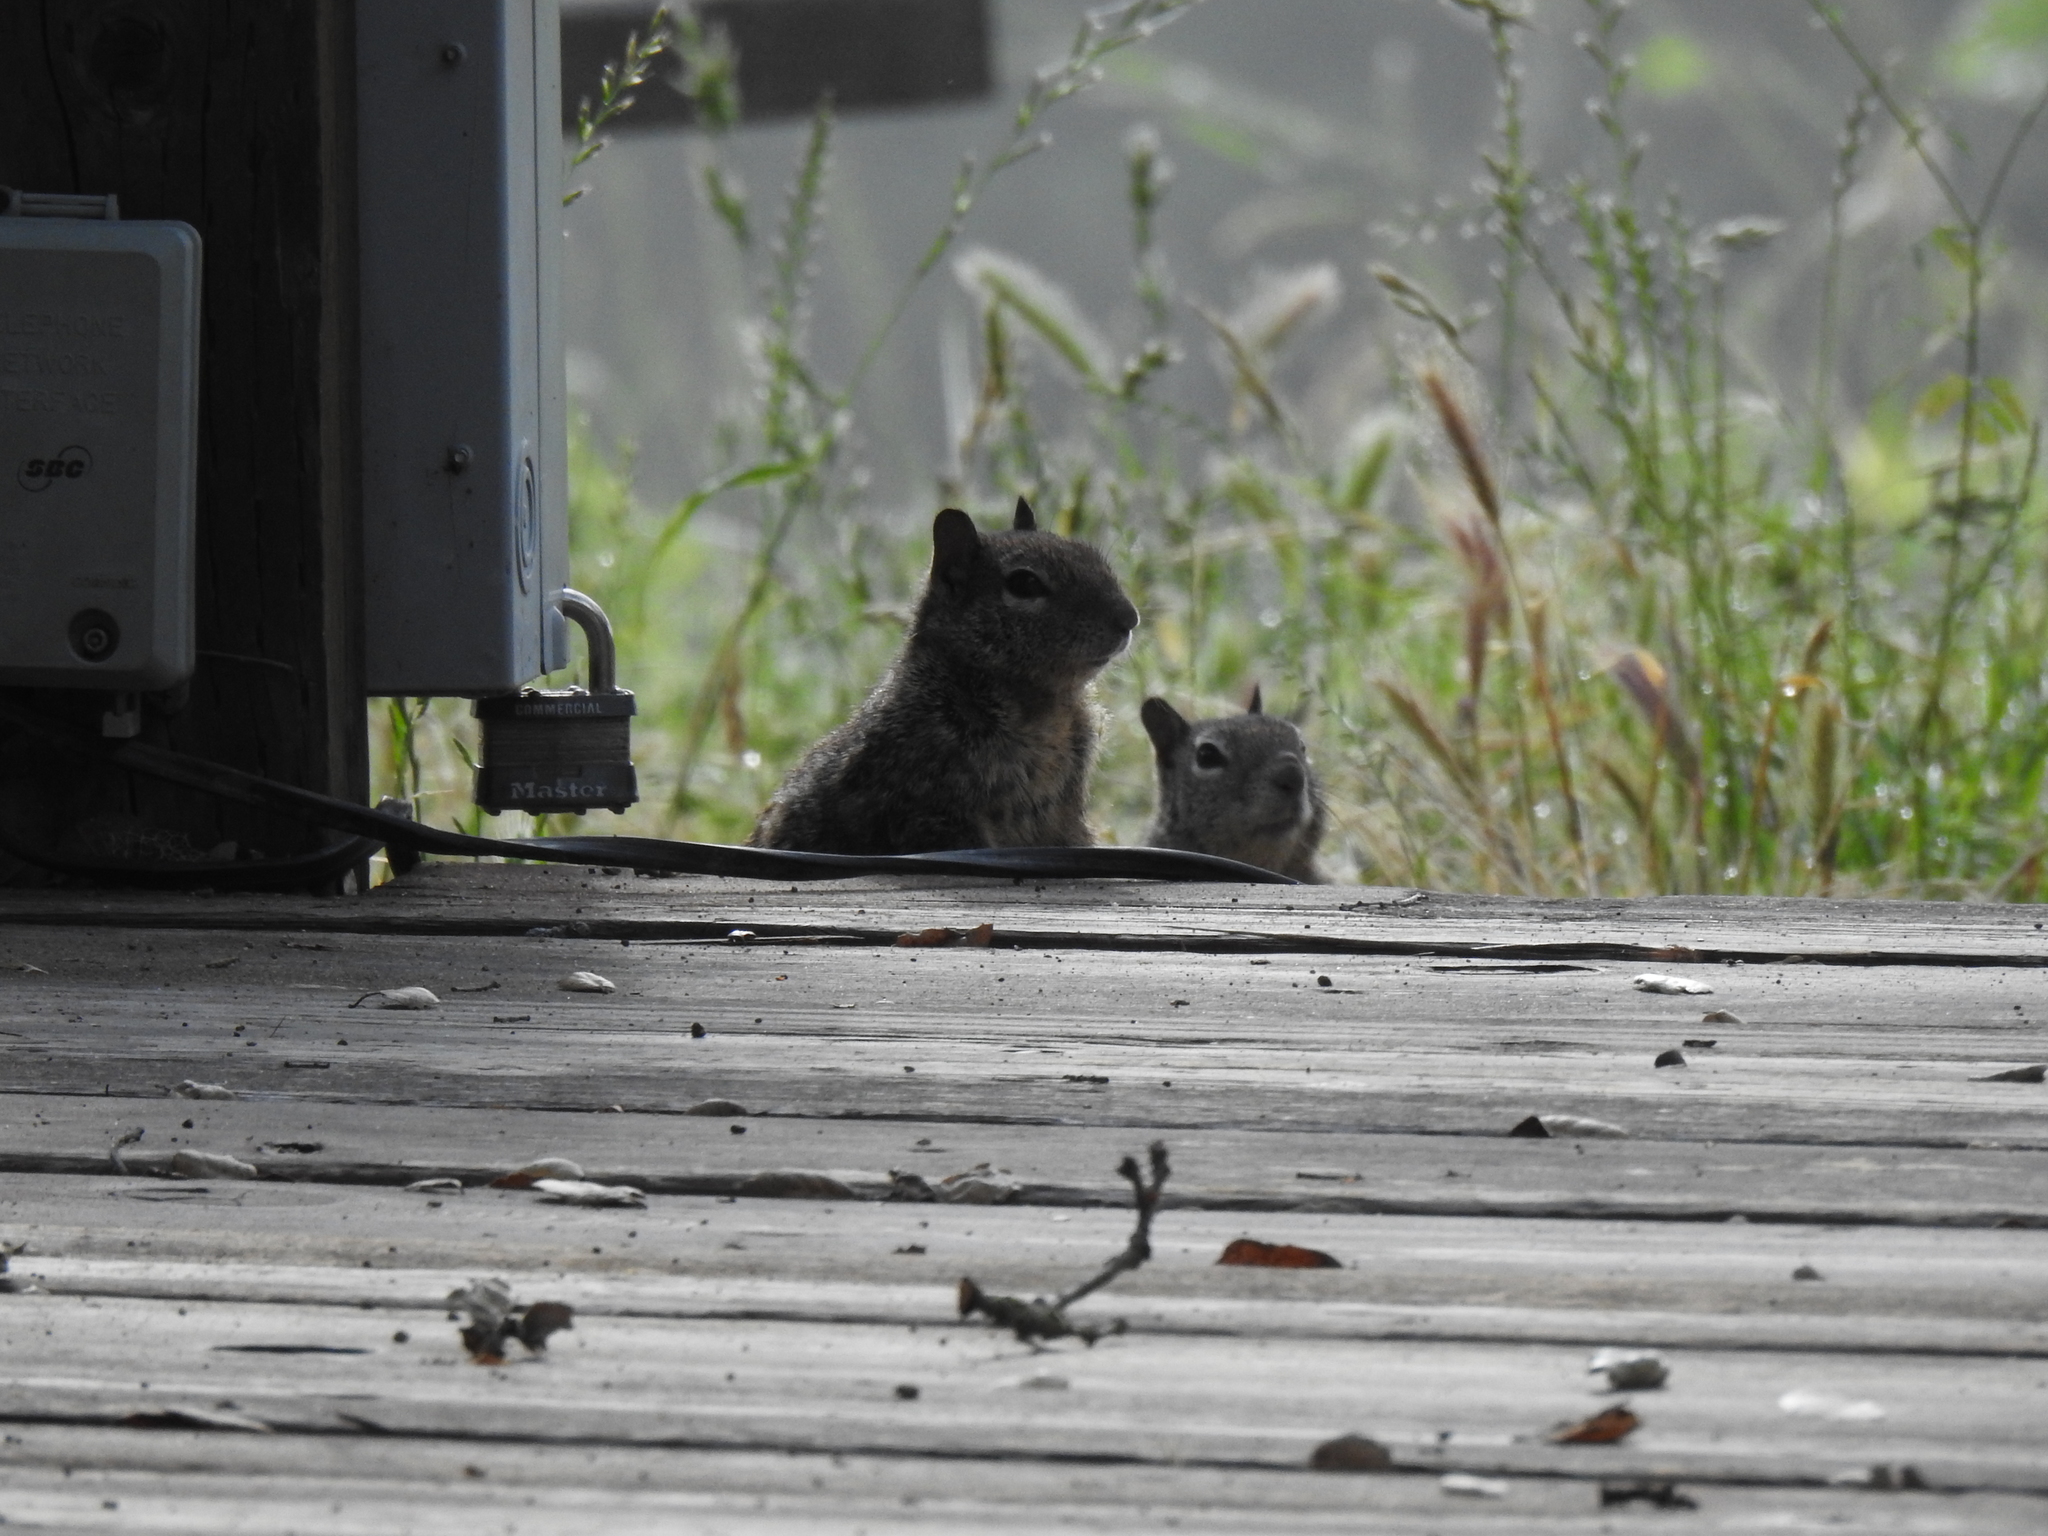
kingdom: Animalia
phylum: Chordata
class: Mammalia
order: Rodentia
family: Sciuridae
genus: Otospermophilus
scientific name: Otospermophilus beecheyi
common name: California ground squirrel
